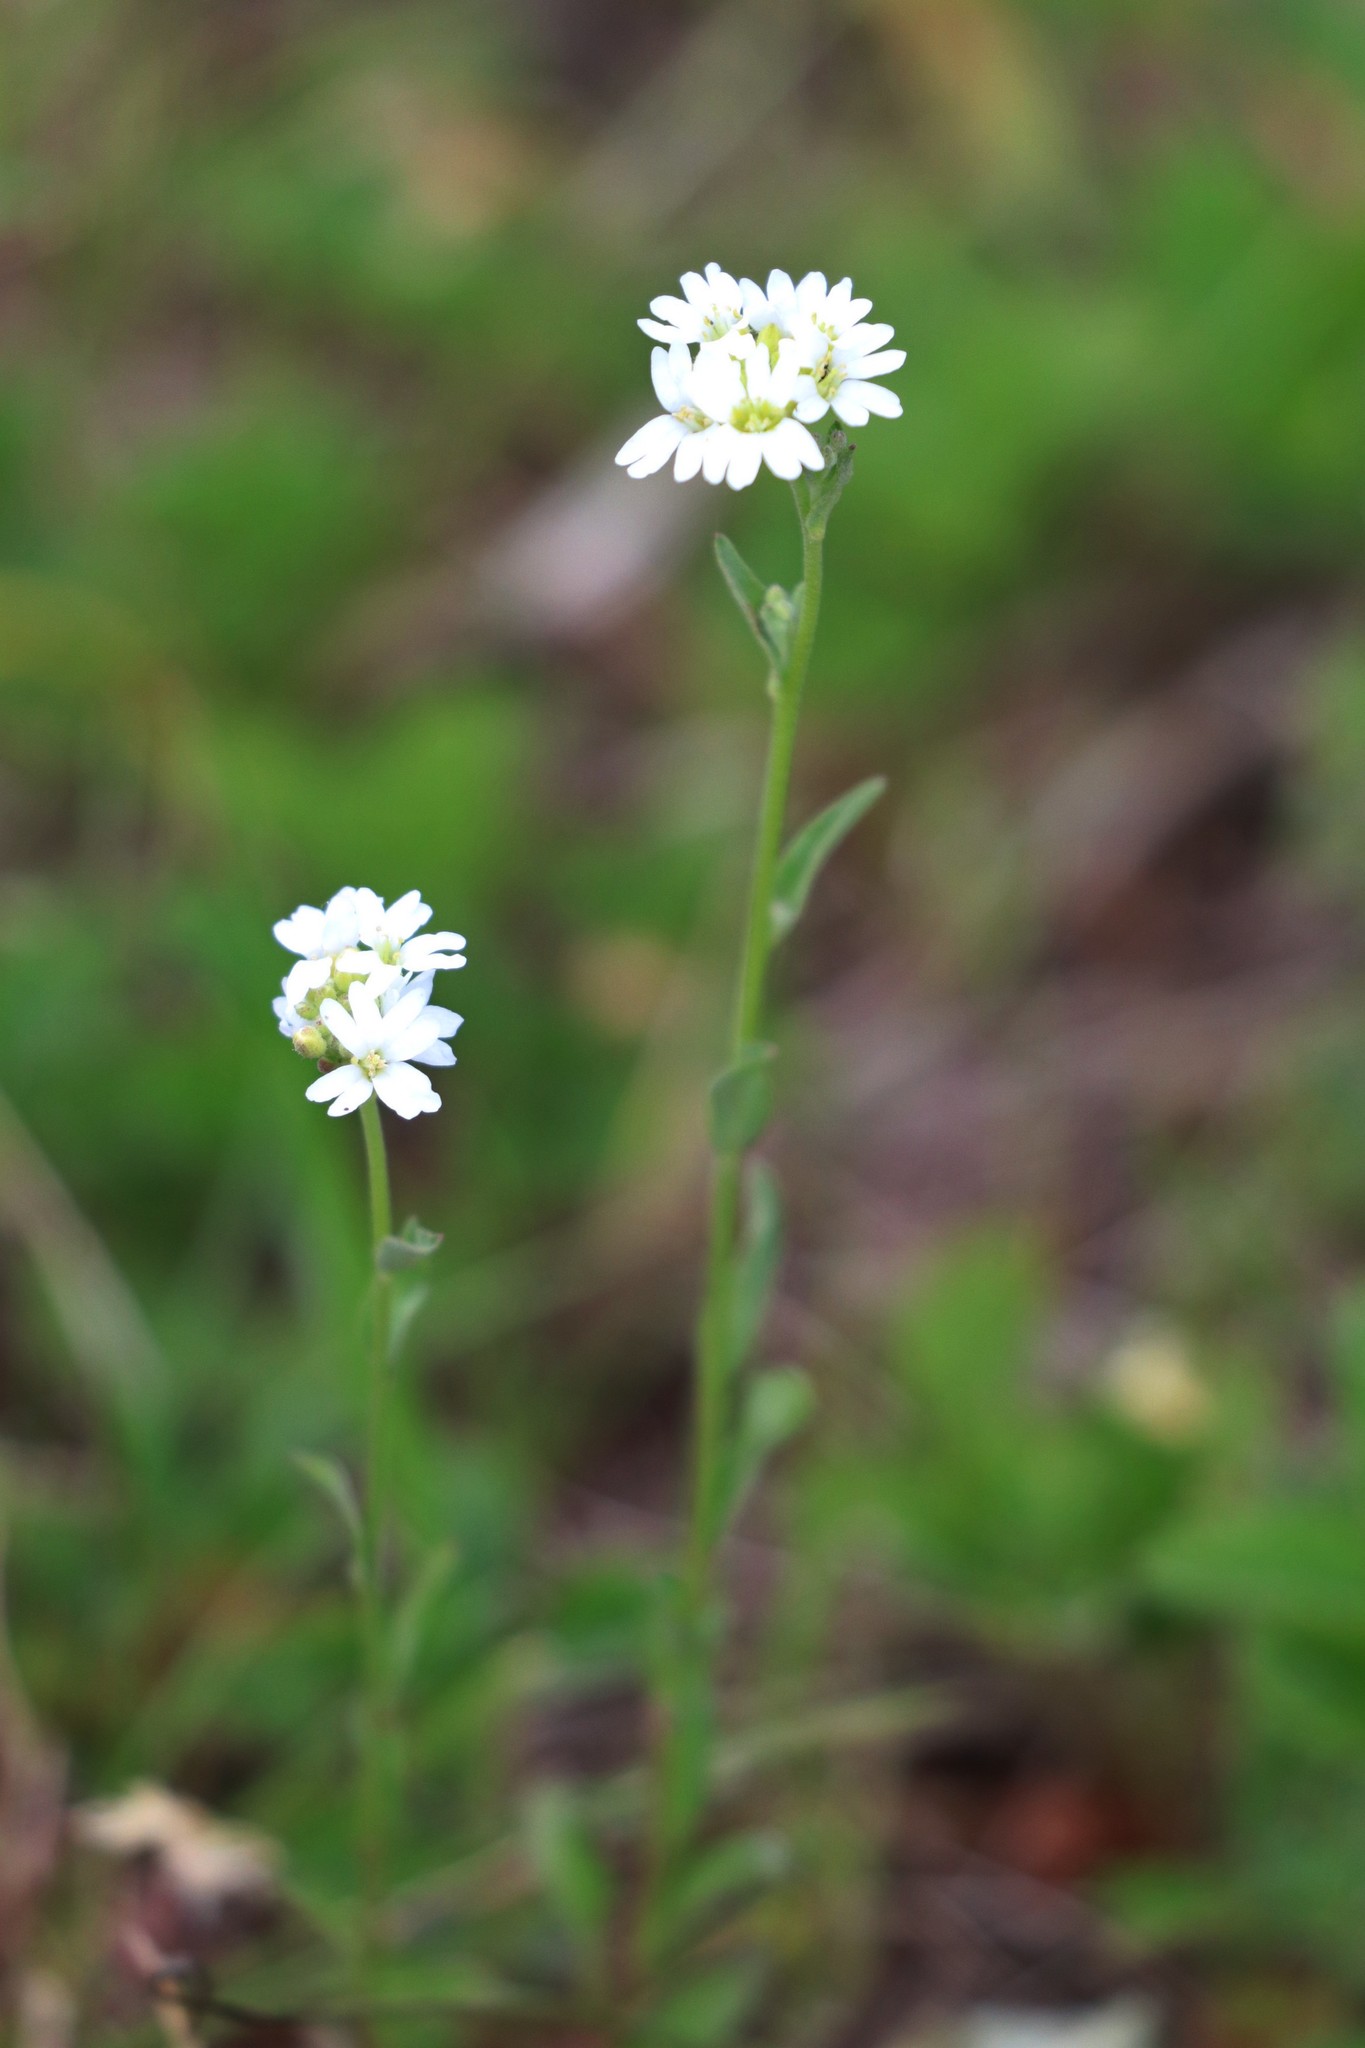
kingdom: Plantae
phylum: Tracheophyta
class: Magnoliopsida
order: Brassicales
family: Brassicaceae
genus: Berteroa
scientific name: Berteroa incana
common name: Hoary alison
